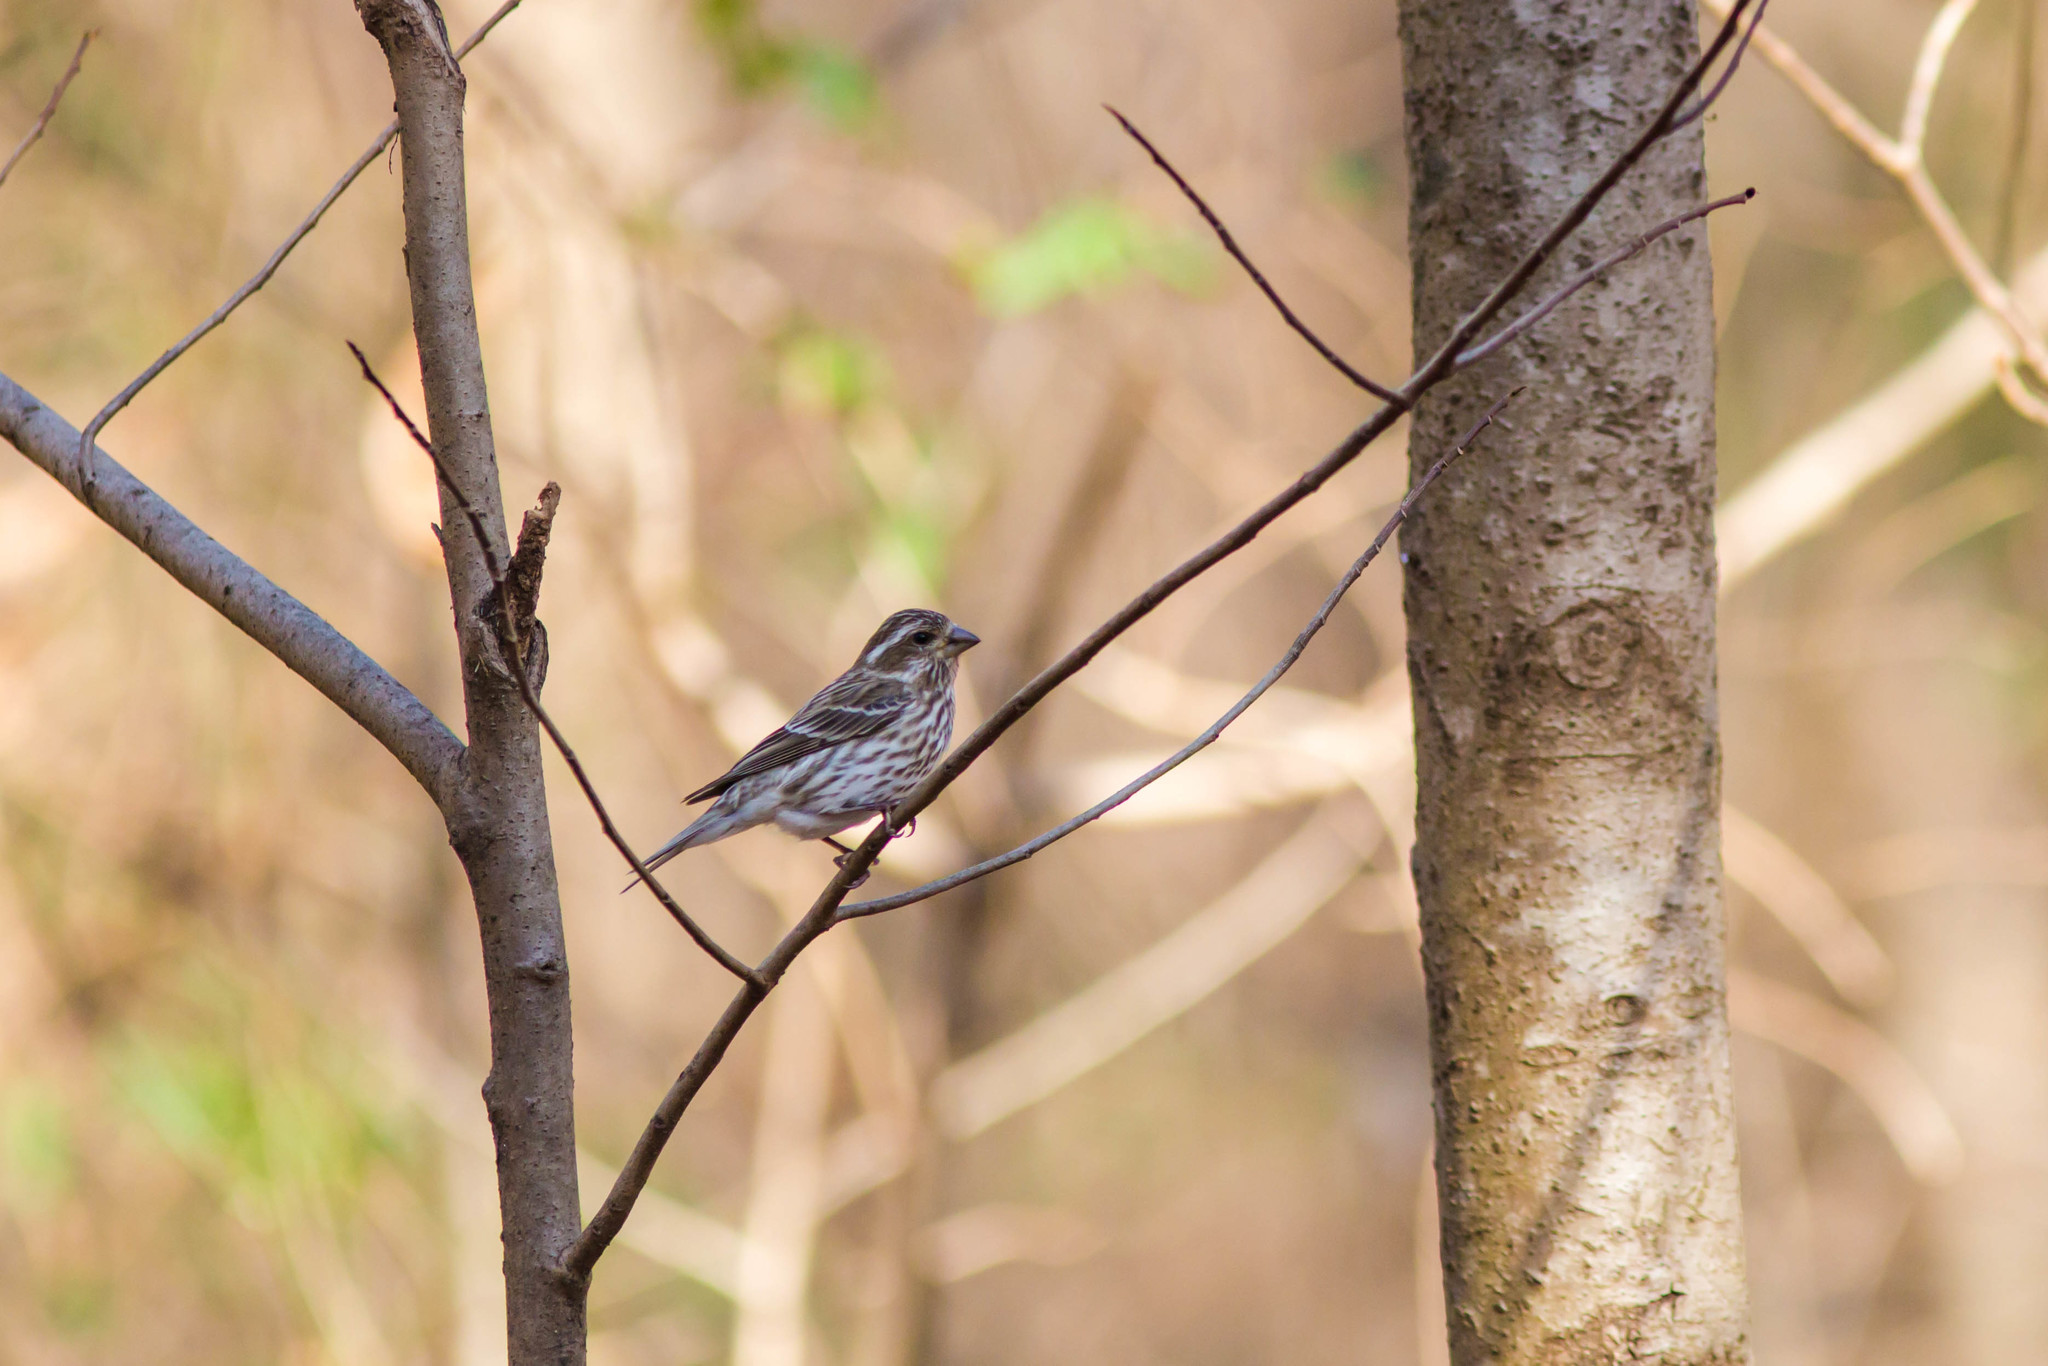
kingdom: Animalia
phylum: Chordata
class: Aves
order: Passeriformes
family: Fringillidae
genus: Haemorhous
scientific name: Haemorhous purpureus
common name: Purple finch
